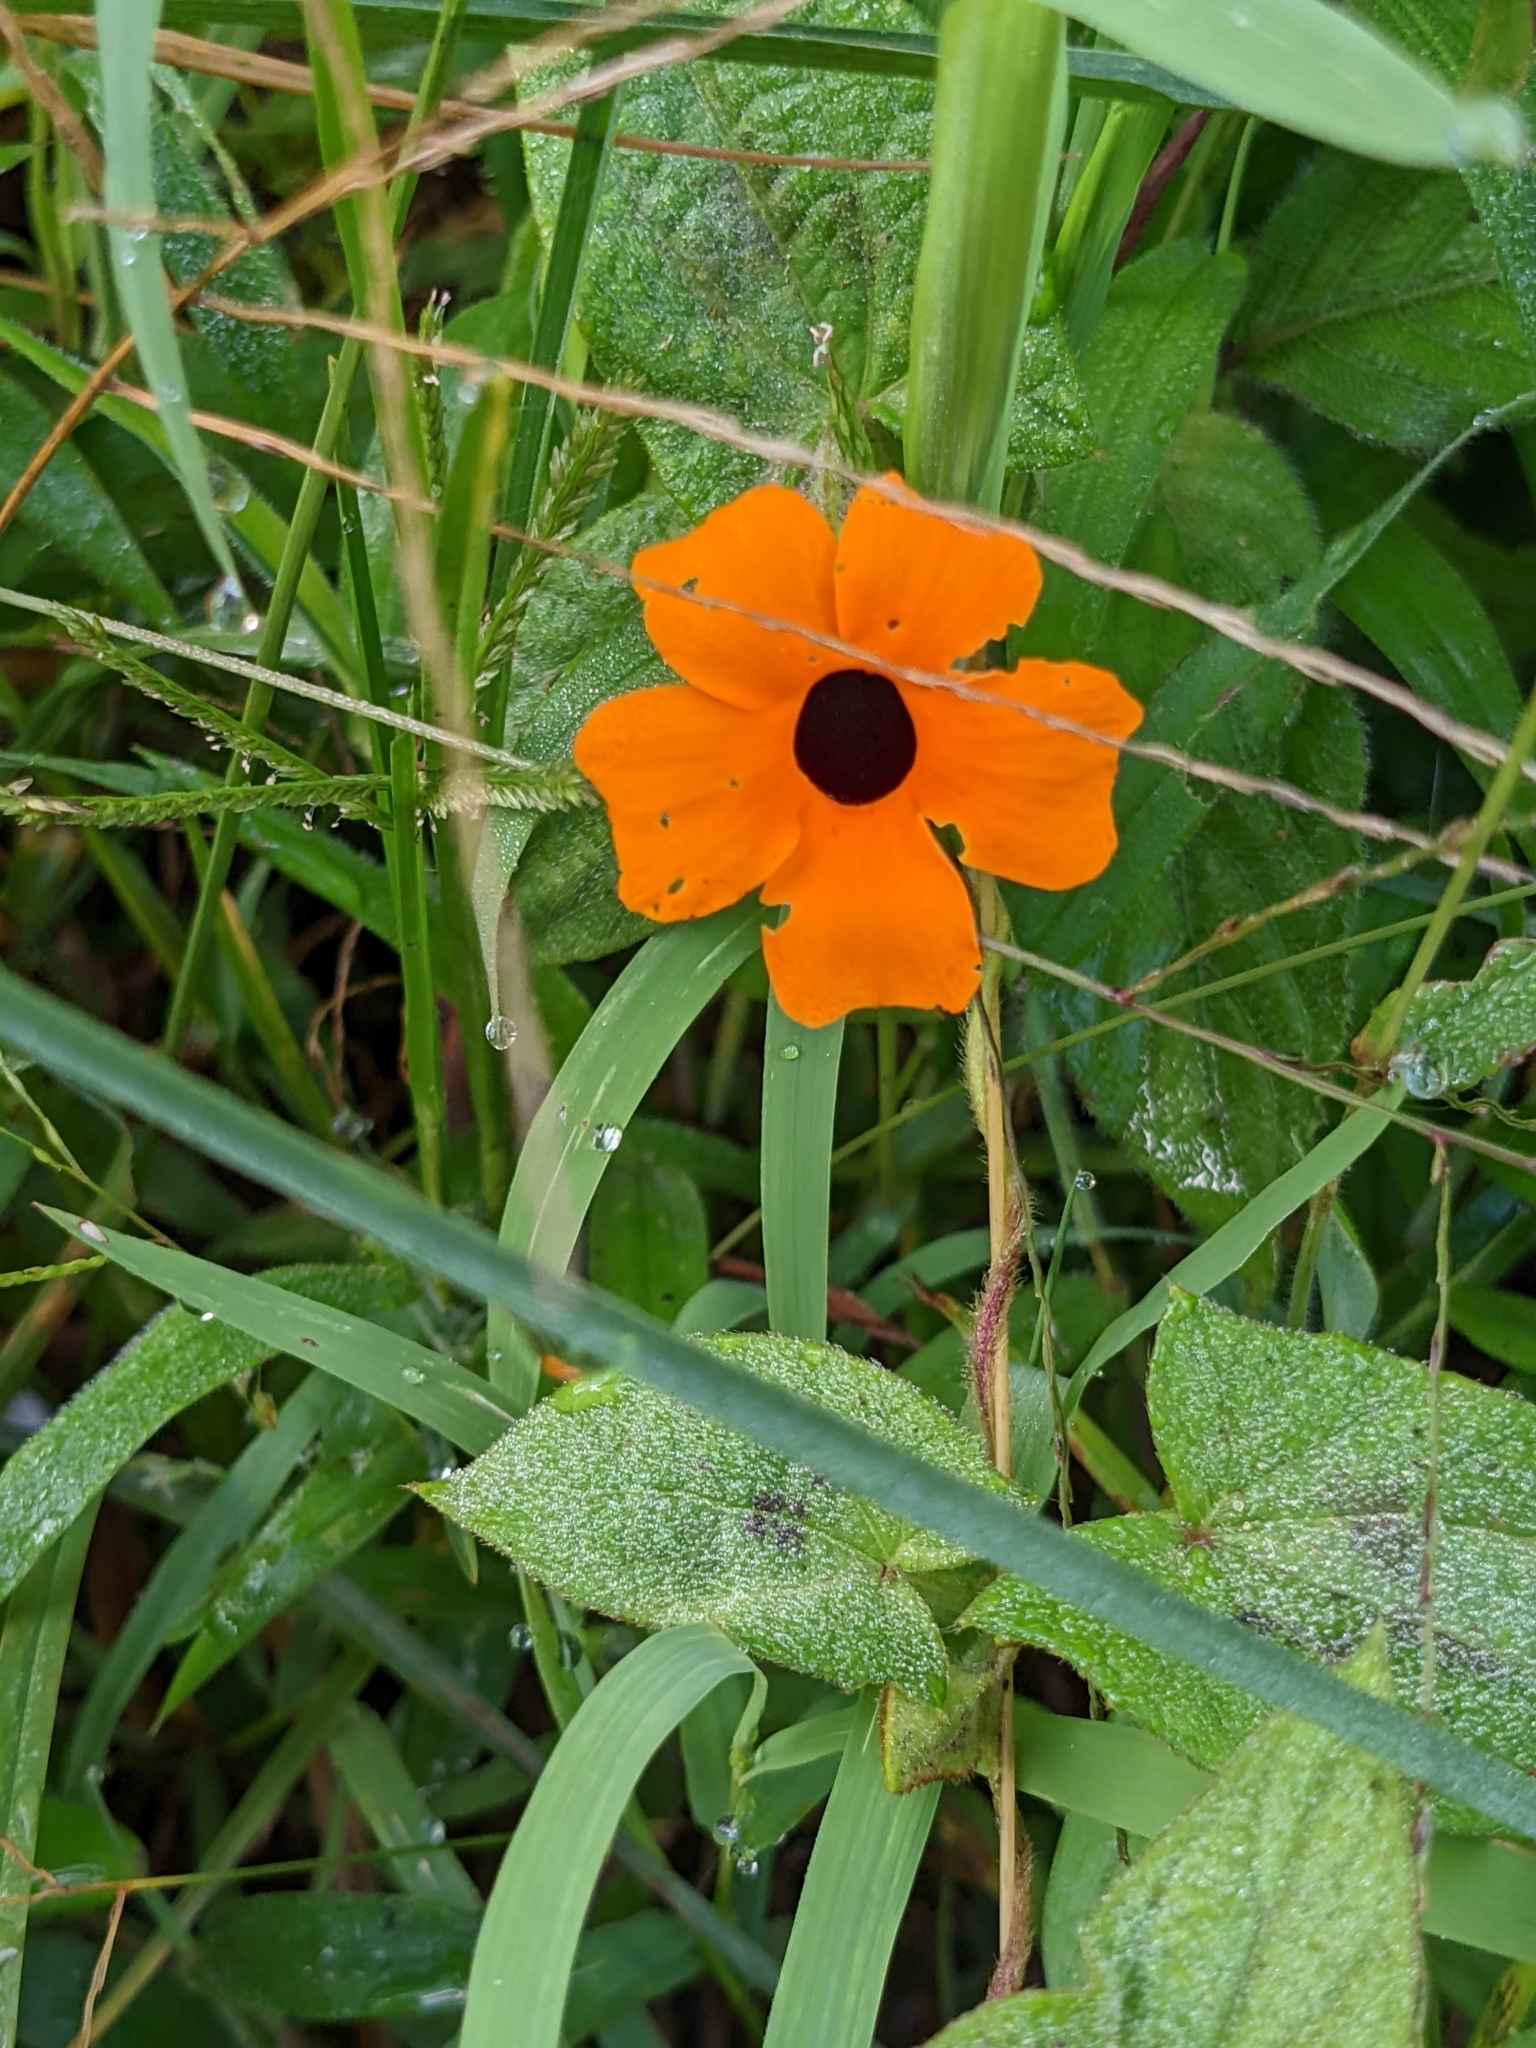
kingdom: Plantae
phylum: Tracheophyta
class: Magnoliopsida
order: Lamiales
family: Acanthaceae
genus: Thunbergia
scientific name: Thunbergia alata
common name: Blackeyed susan vine
